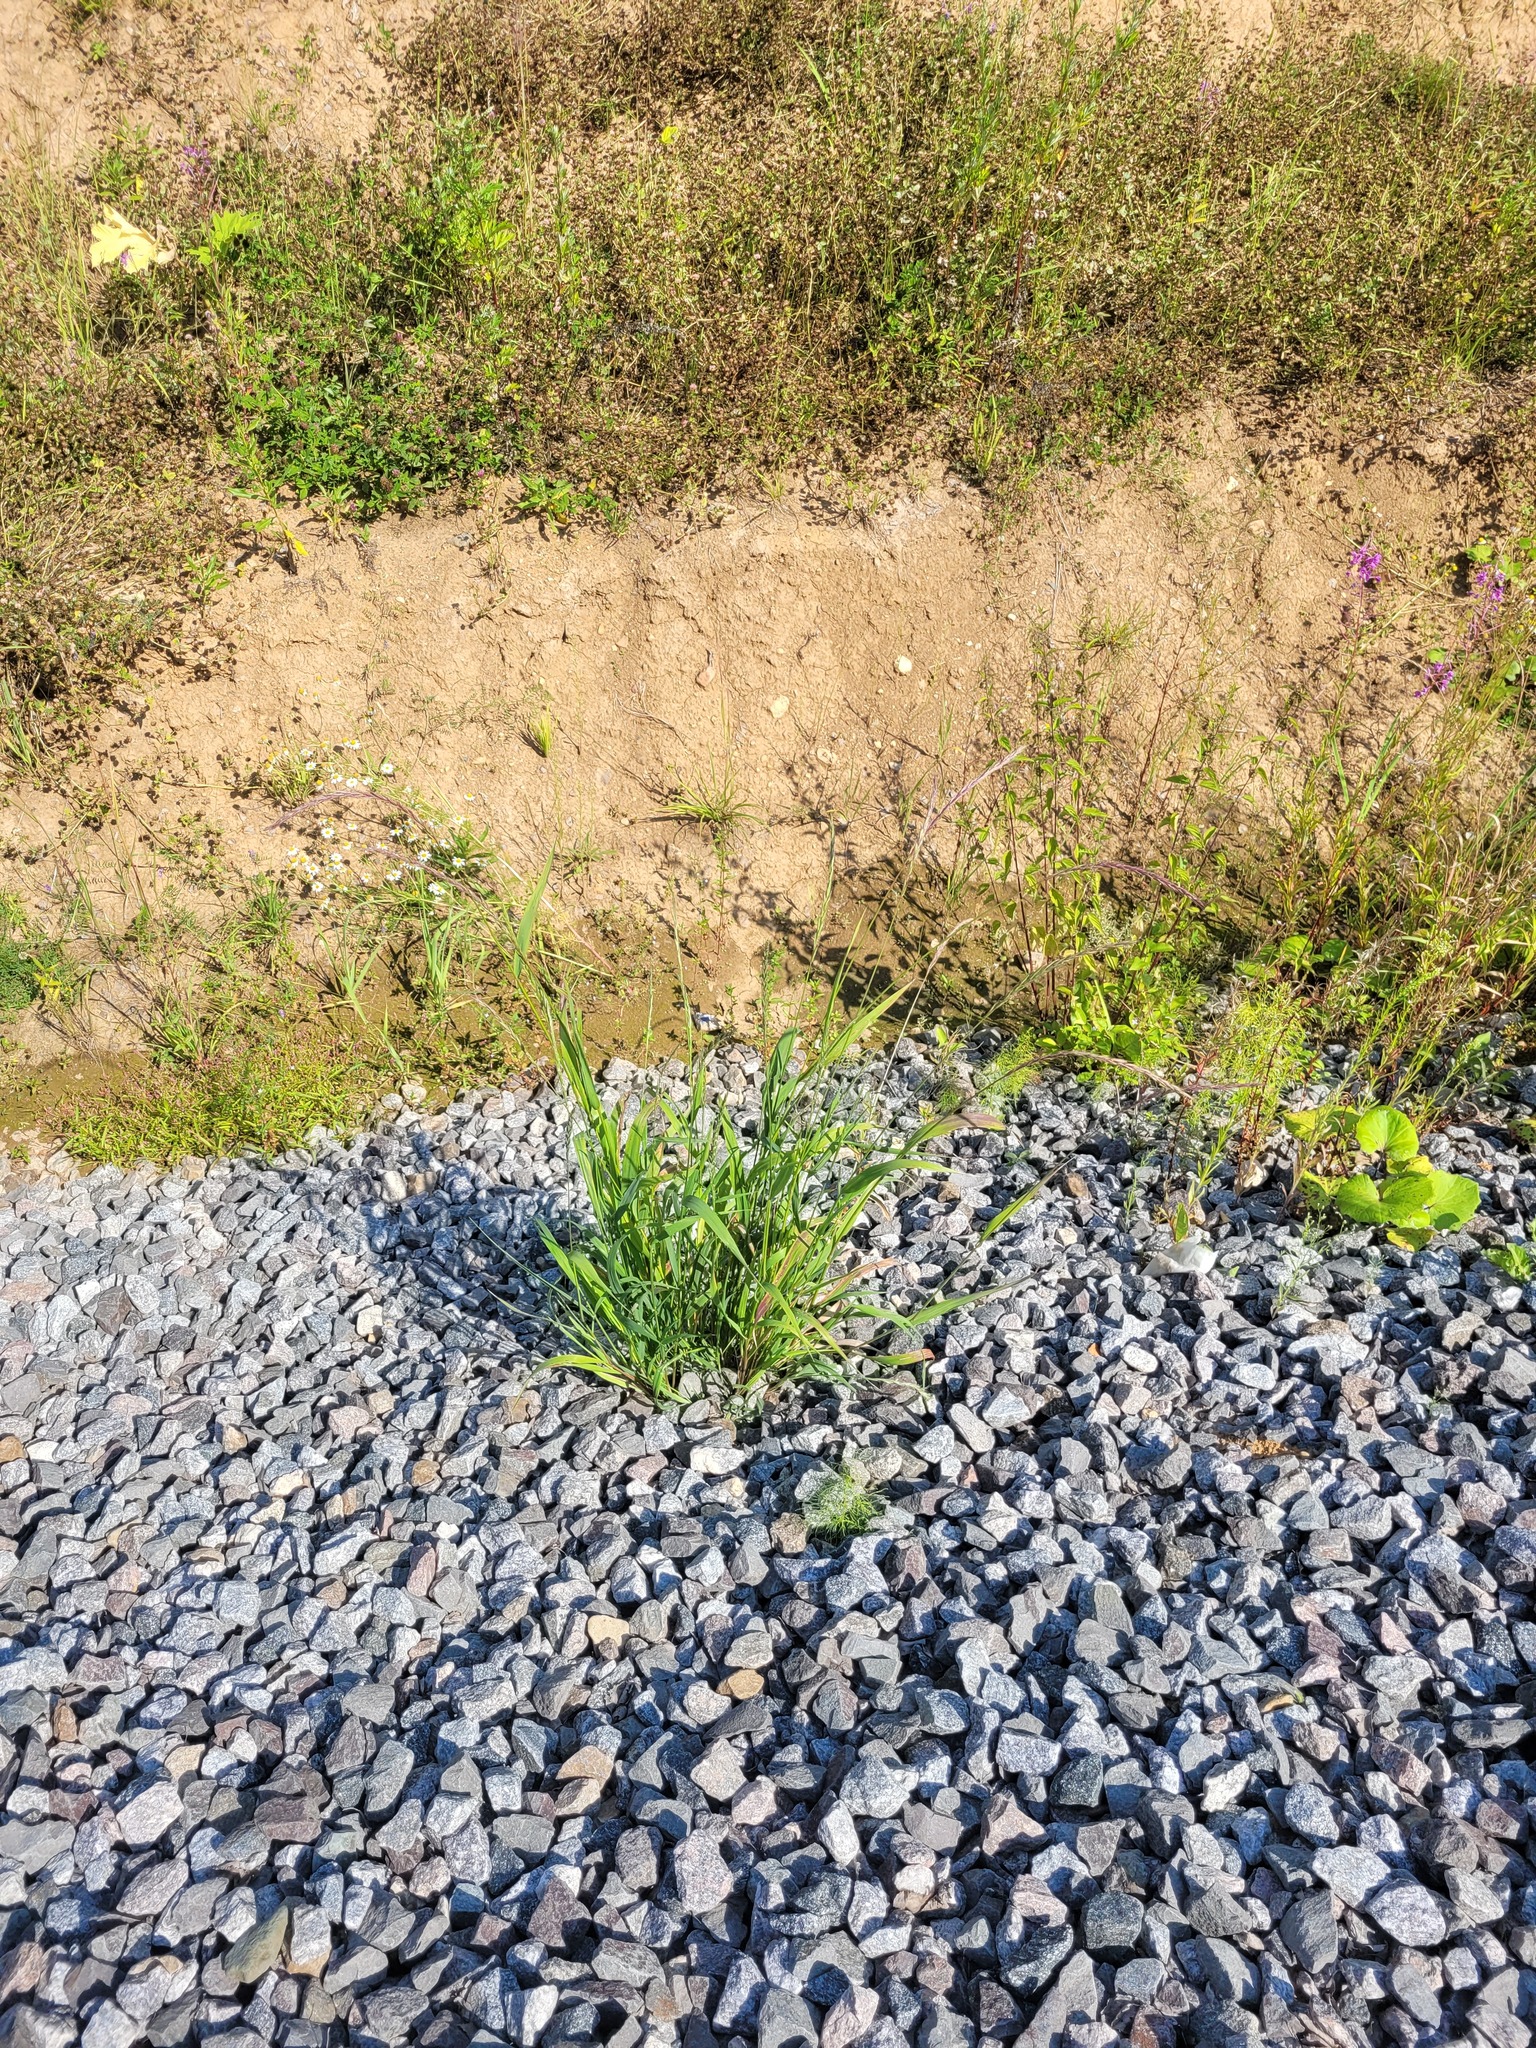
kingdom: Plantae
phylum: Tracheophyta
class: Liliopsida
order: Poales
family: Poaceae
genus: Elymus
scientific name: Elymus caninus
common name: Bearded couch
